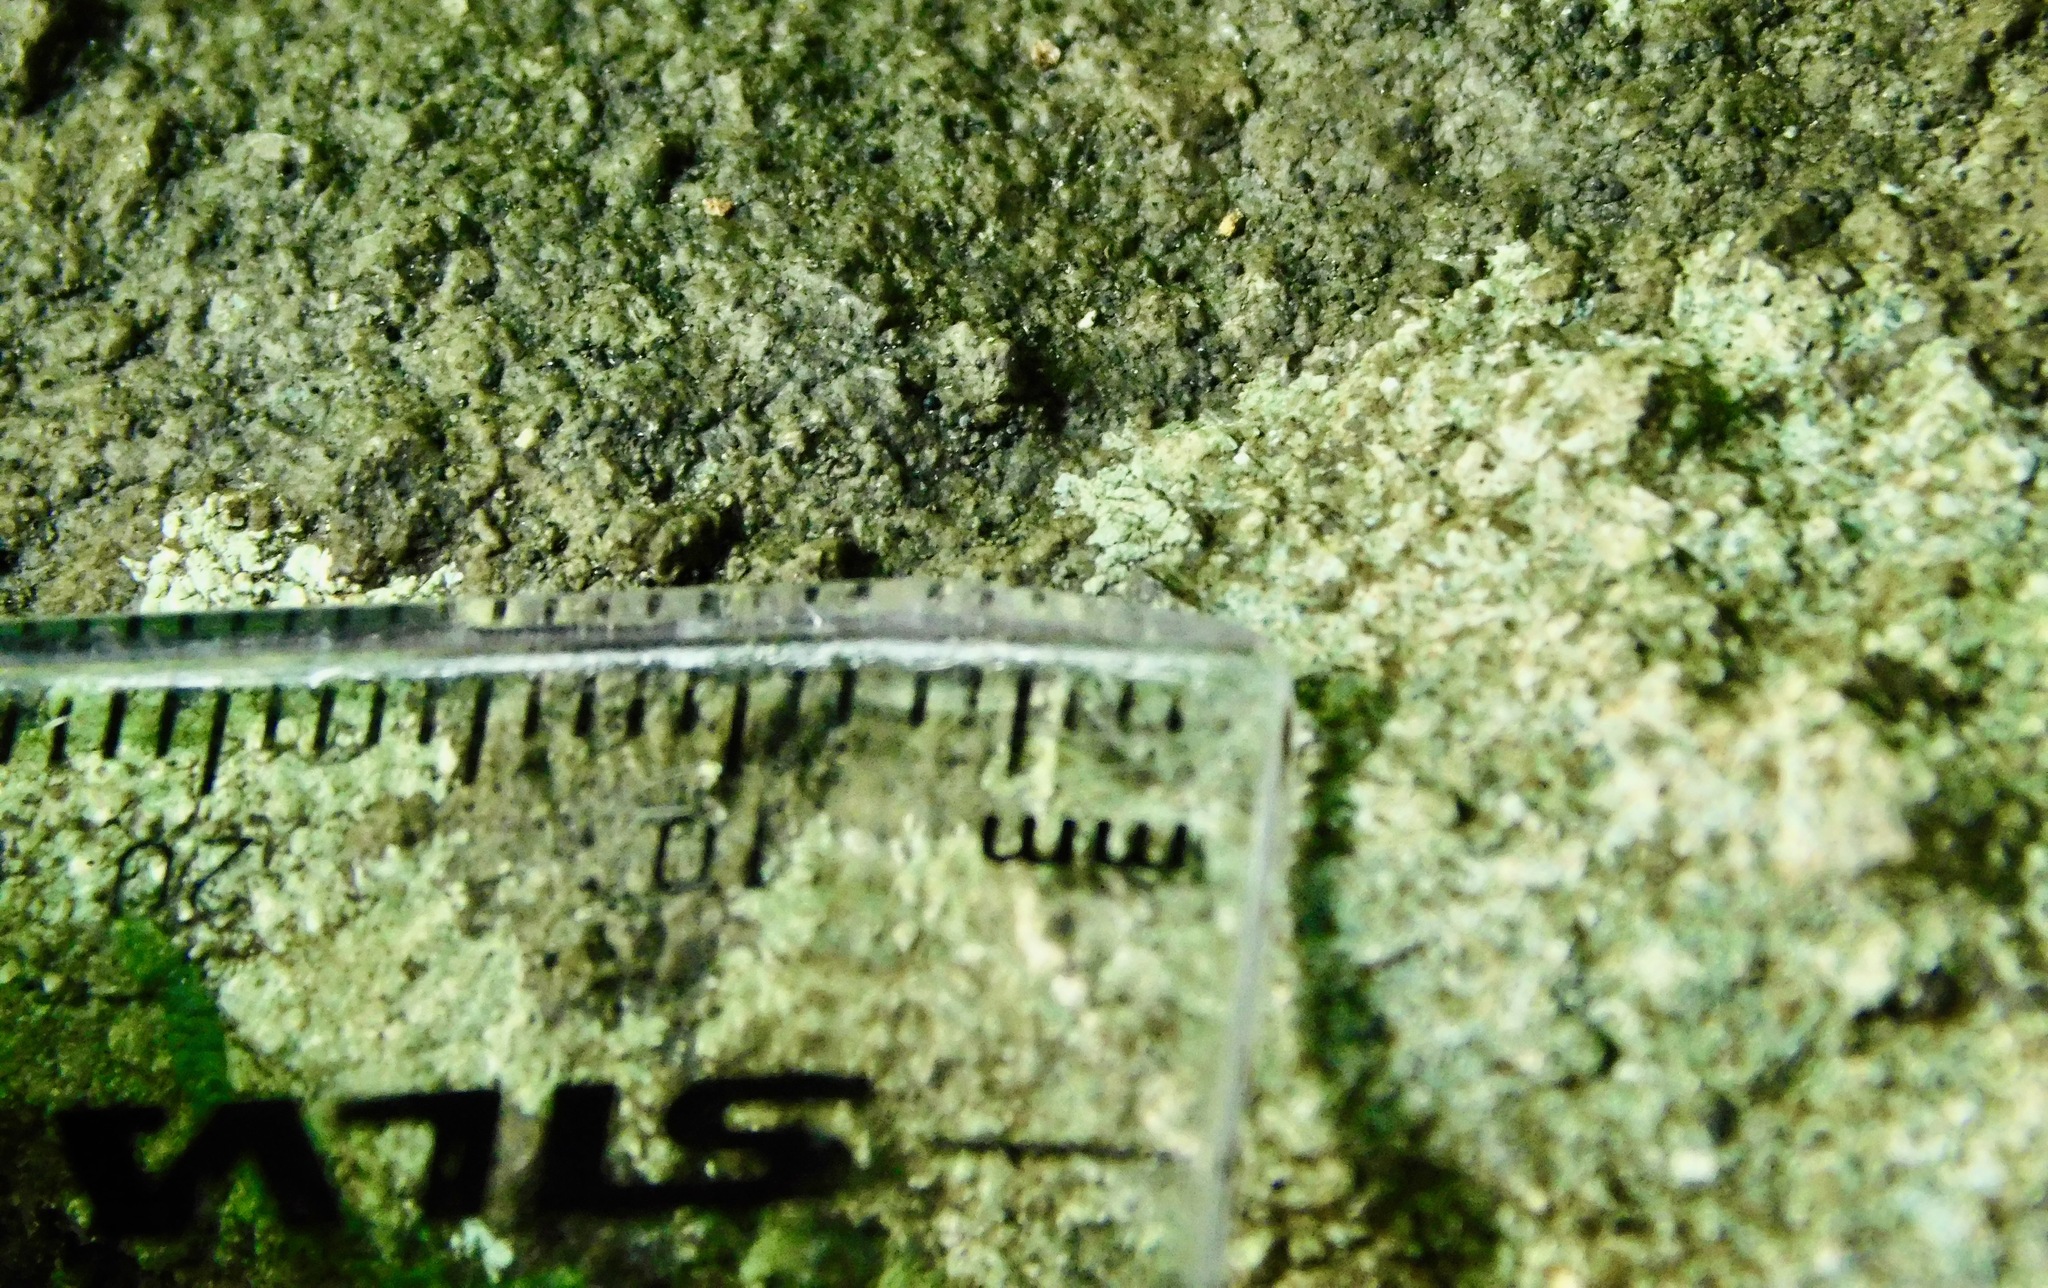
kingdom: Fungi
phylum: Ascomycota
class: Lecanoromycetes
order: Ostropales
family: Porinaceae
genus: Pseudosagedia
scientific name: Pseudosagedia guentheri
